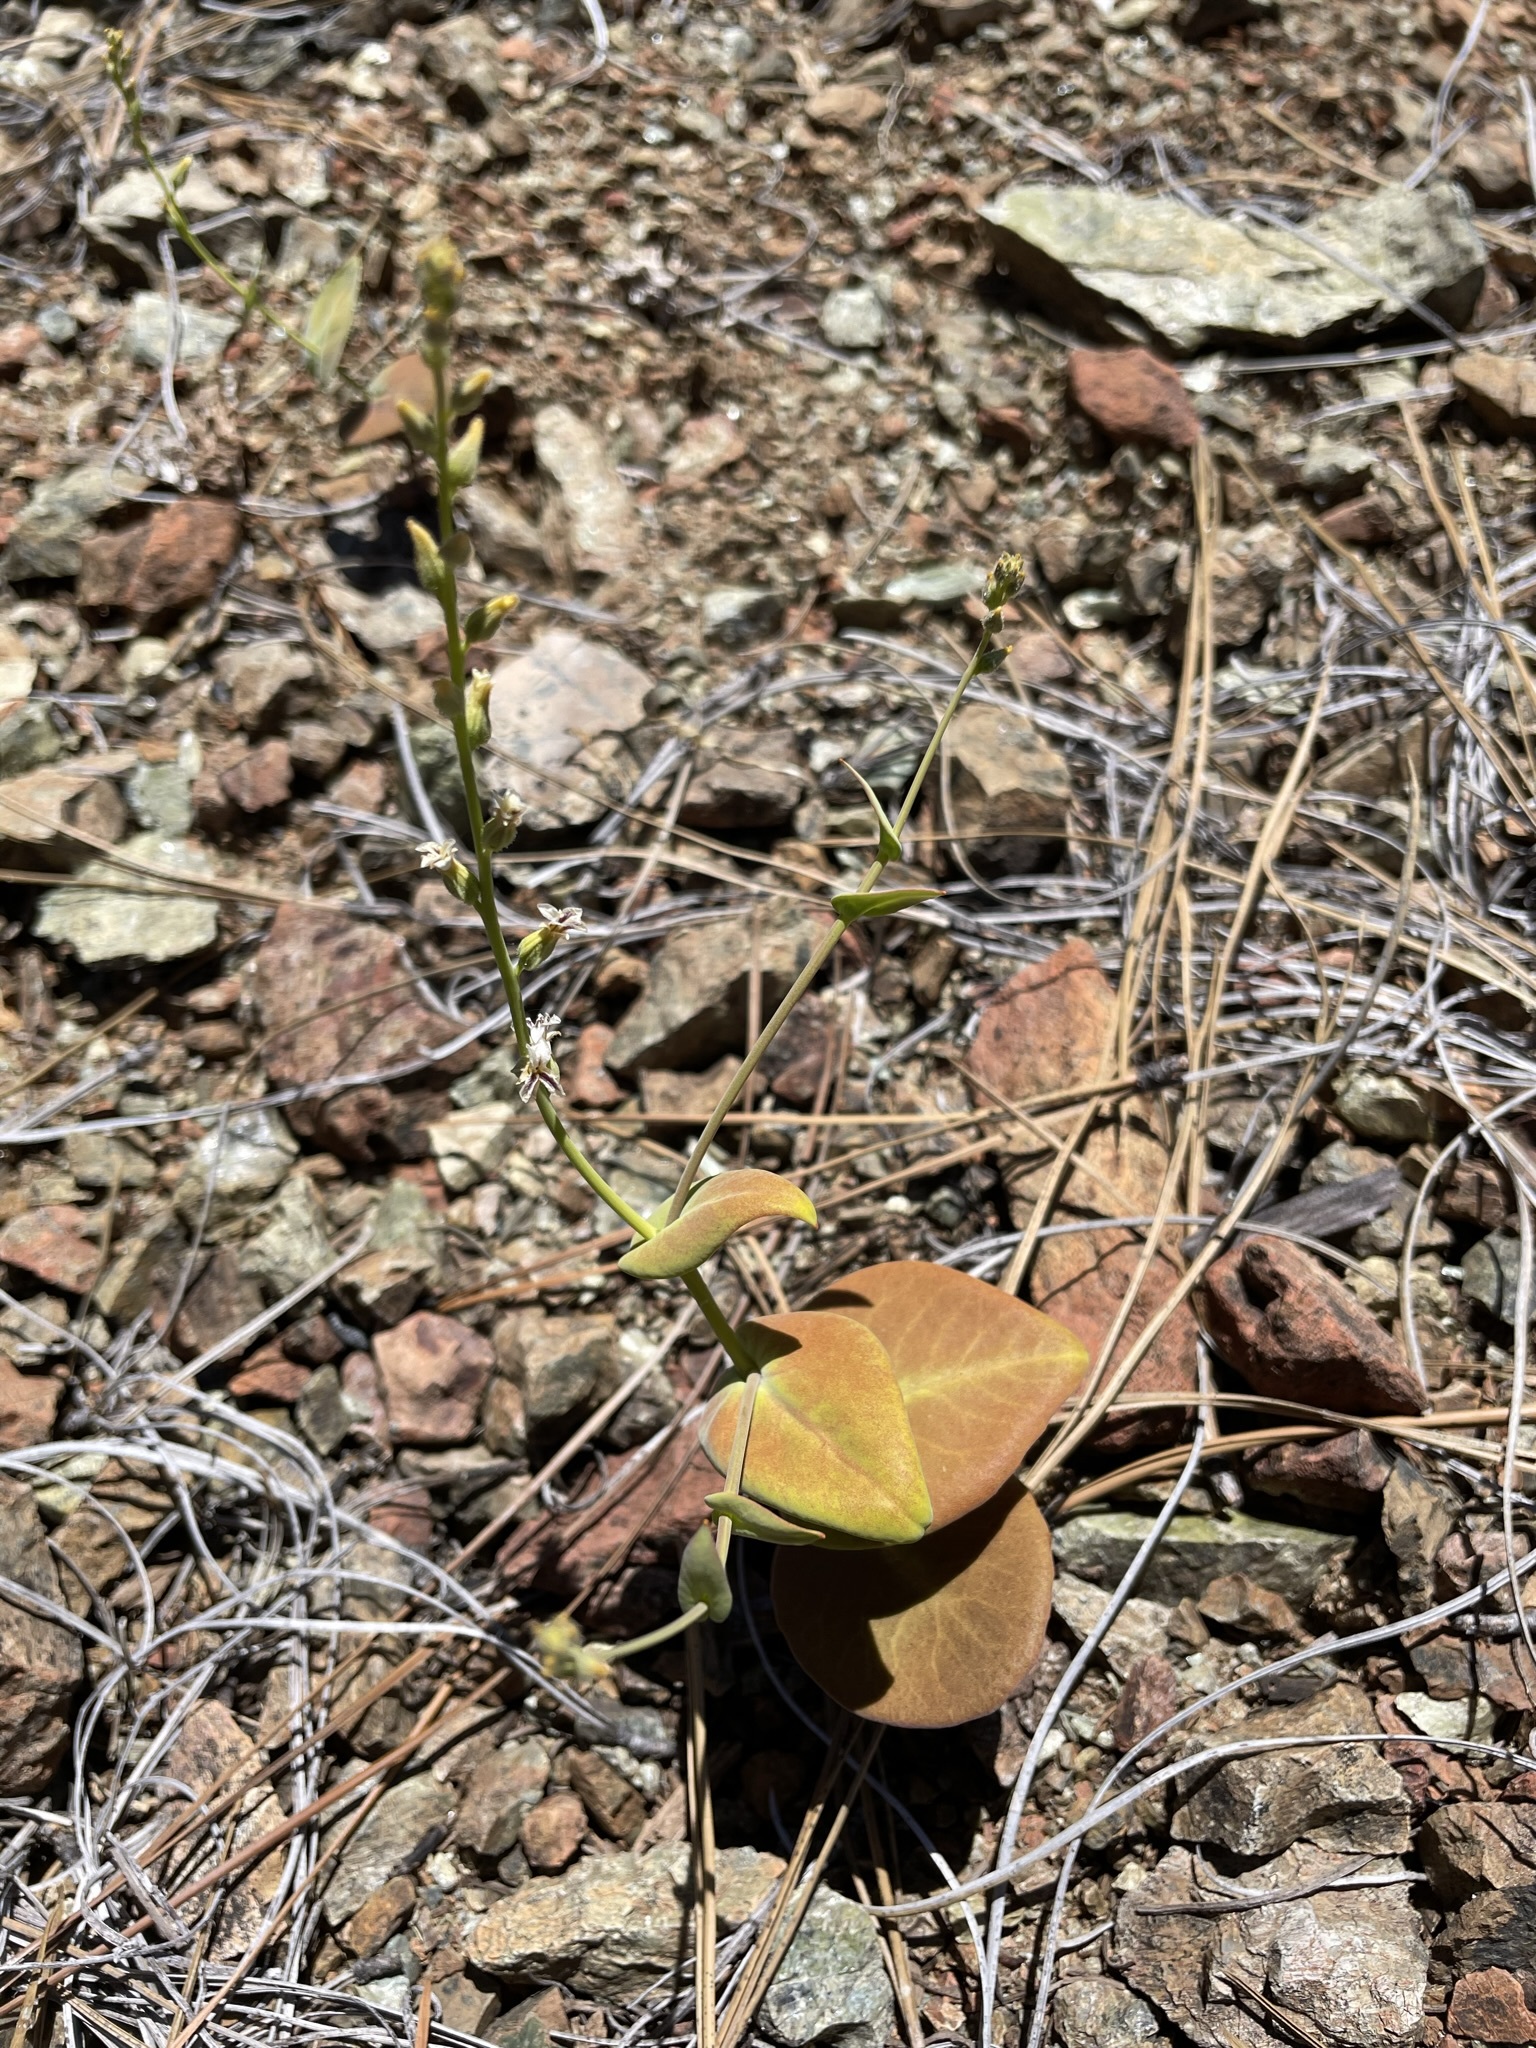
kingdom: Plantae
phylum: Tracheophyta
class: Magnoliopsida
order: Brassicales
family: Brassicaceae
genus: Streptanthus
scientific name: Streptanthus drepanoides
